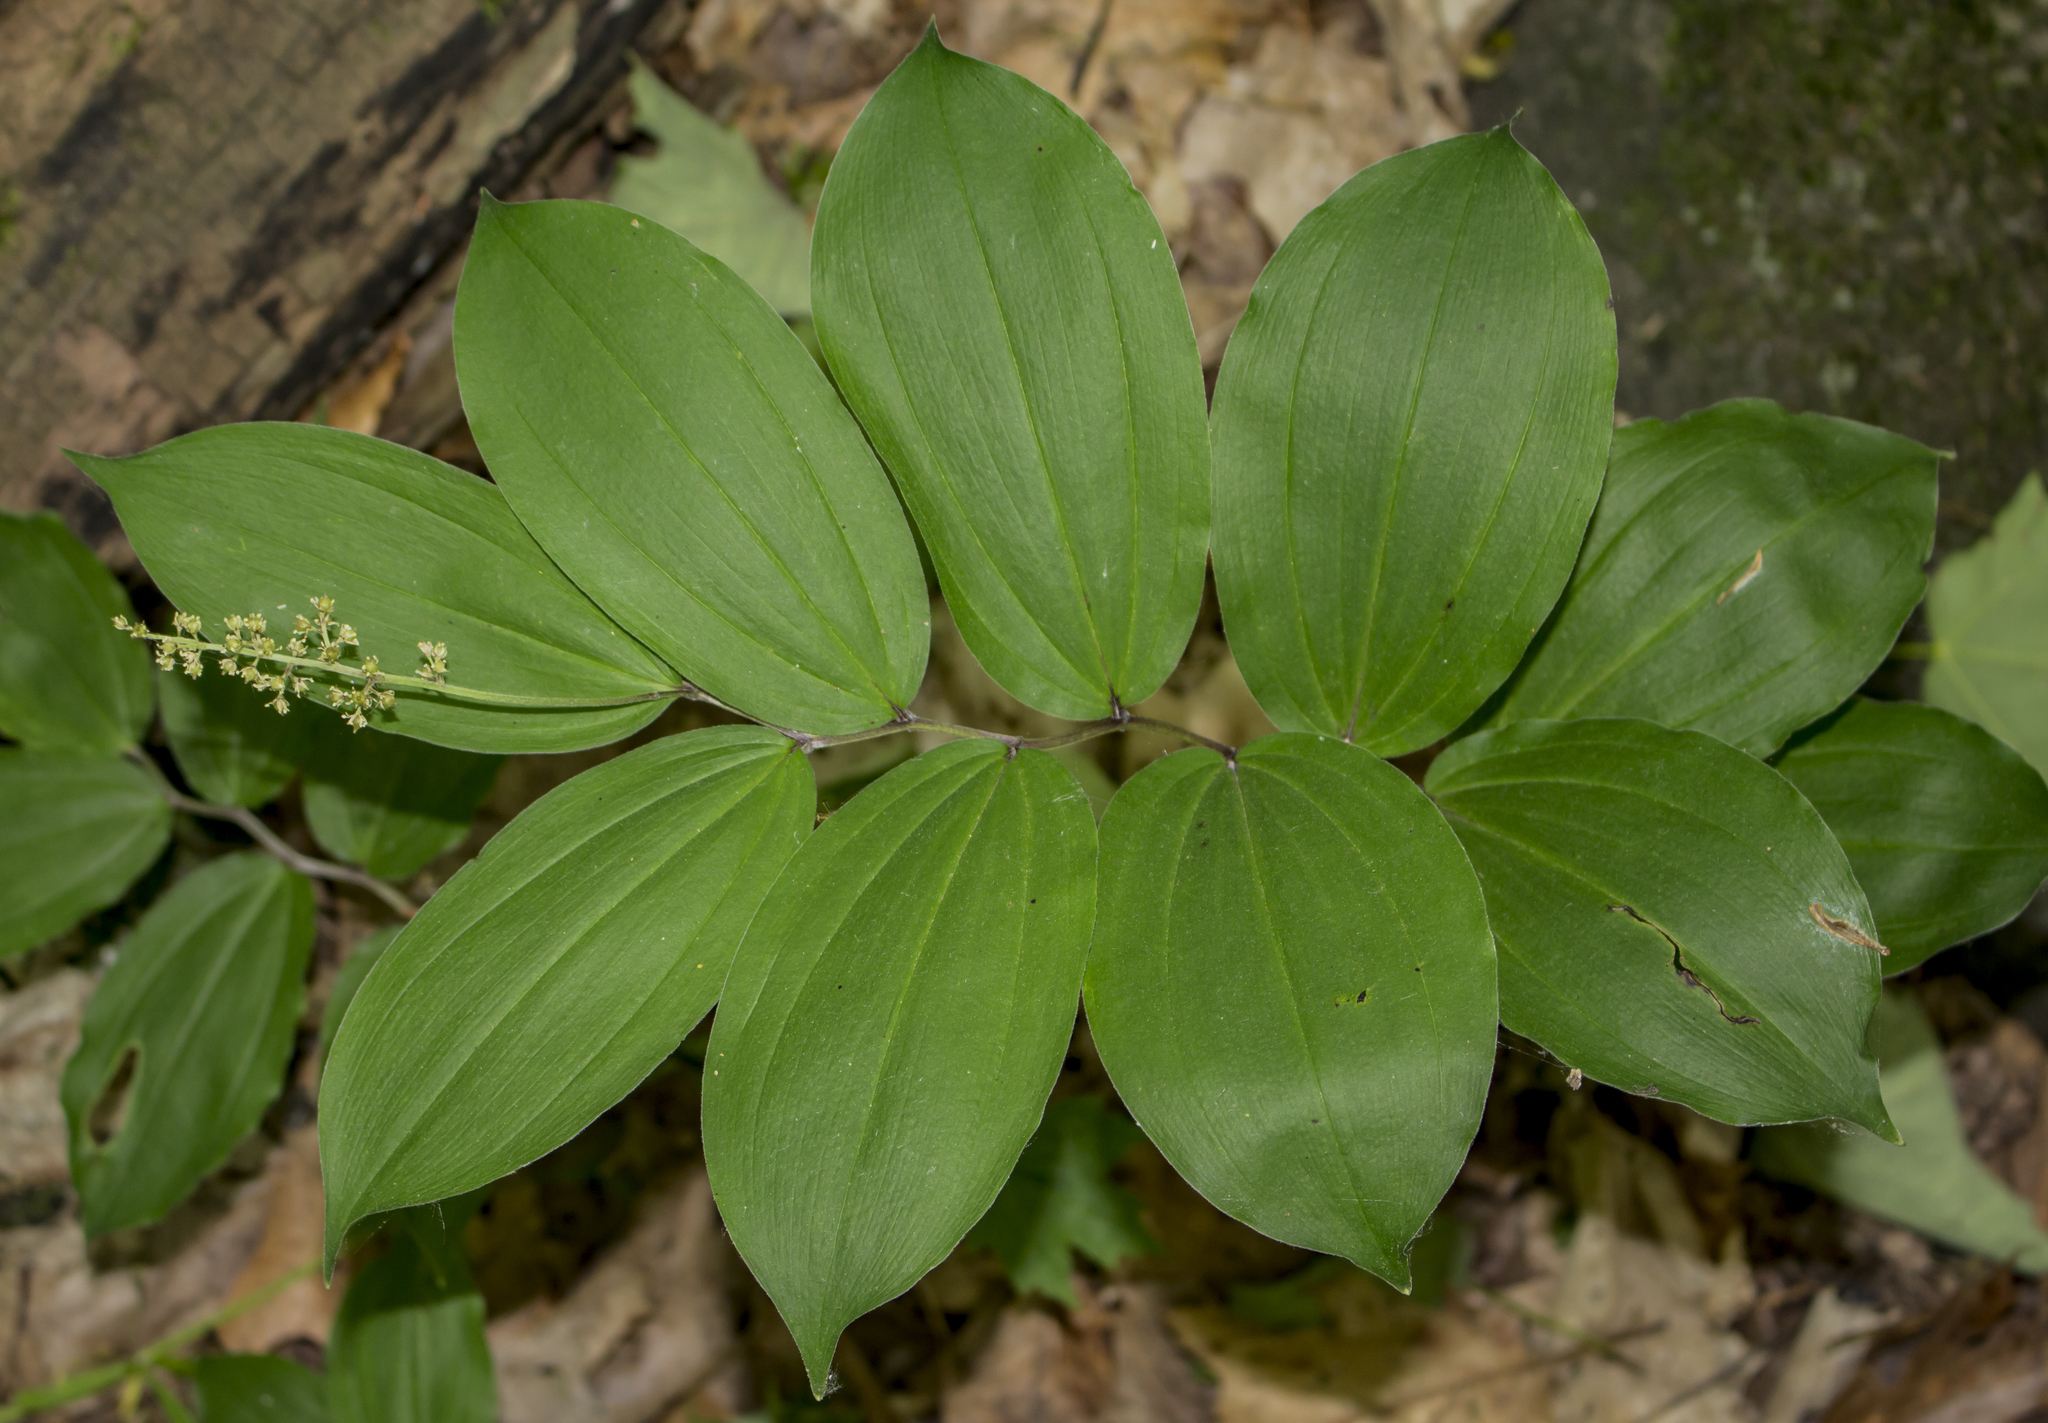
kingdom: Plantae
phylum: Tracheophyta
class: Liliopsida
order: Asparagales
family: Asparagaceae
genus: Maianthemum
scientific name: Maianthemum racemosum
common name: False spikenard
